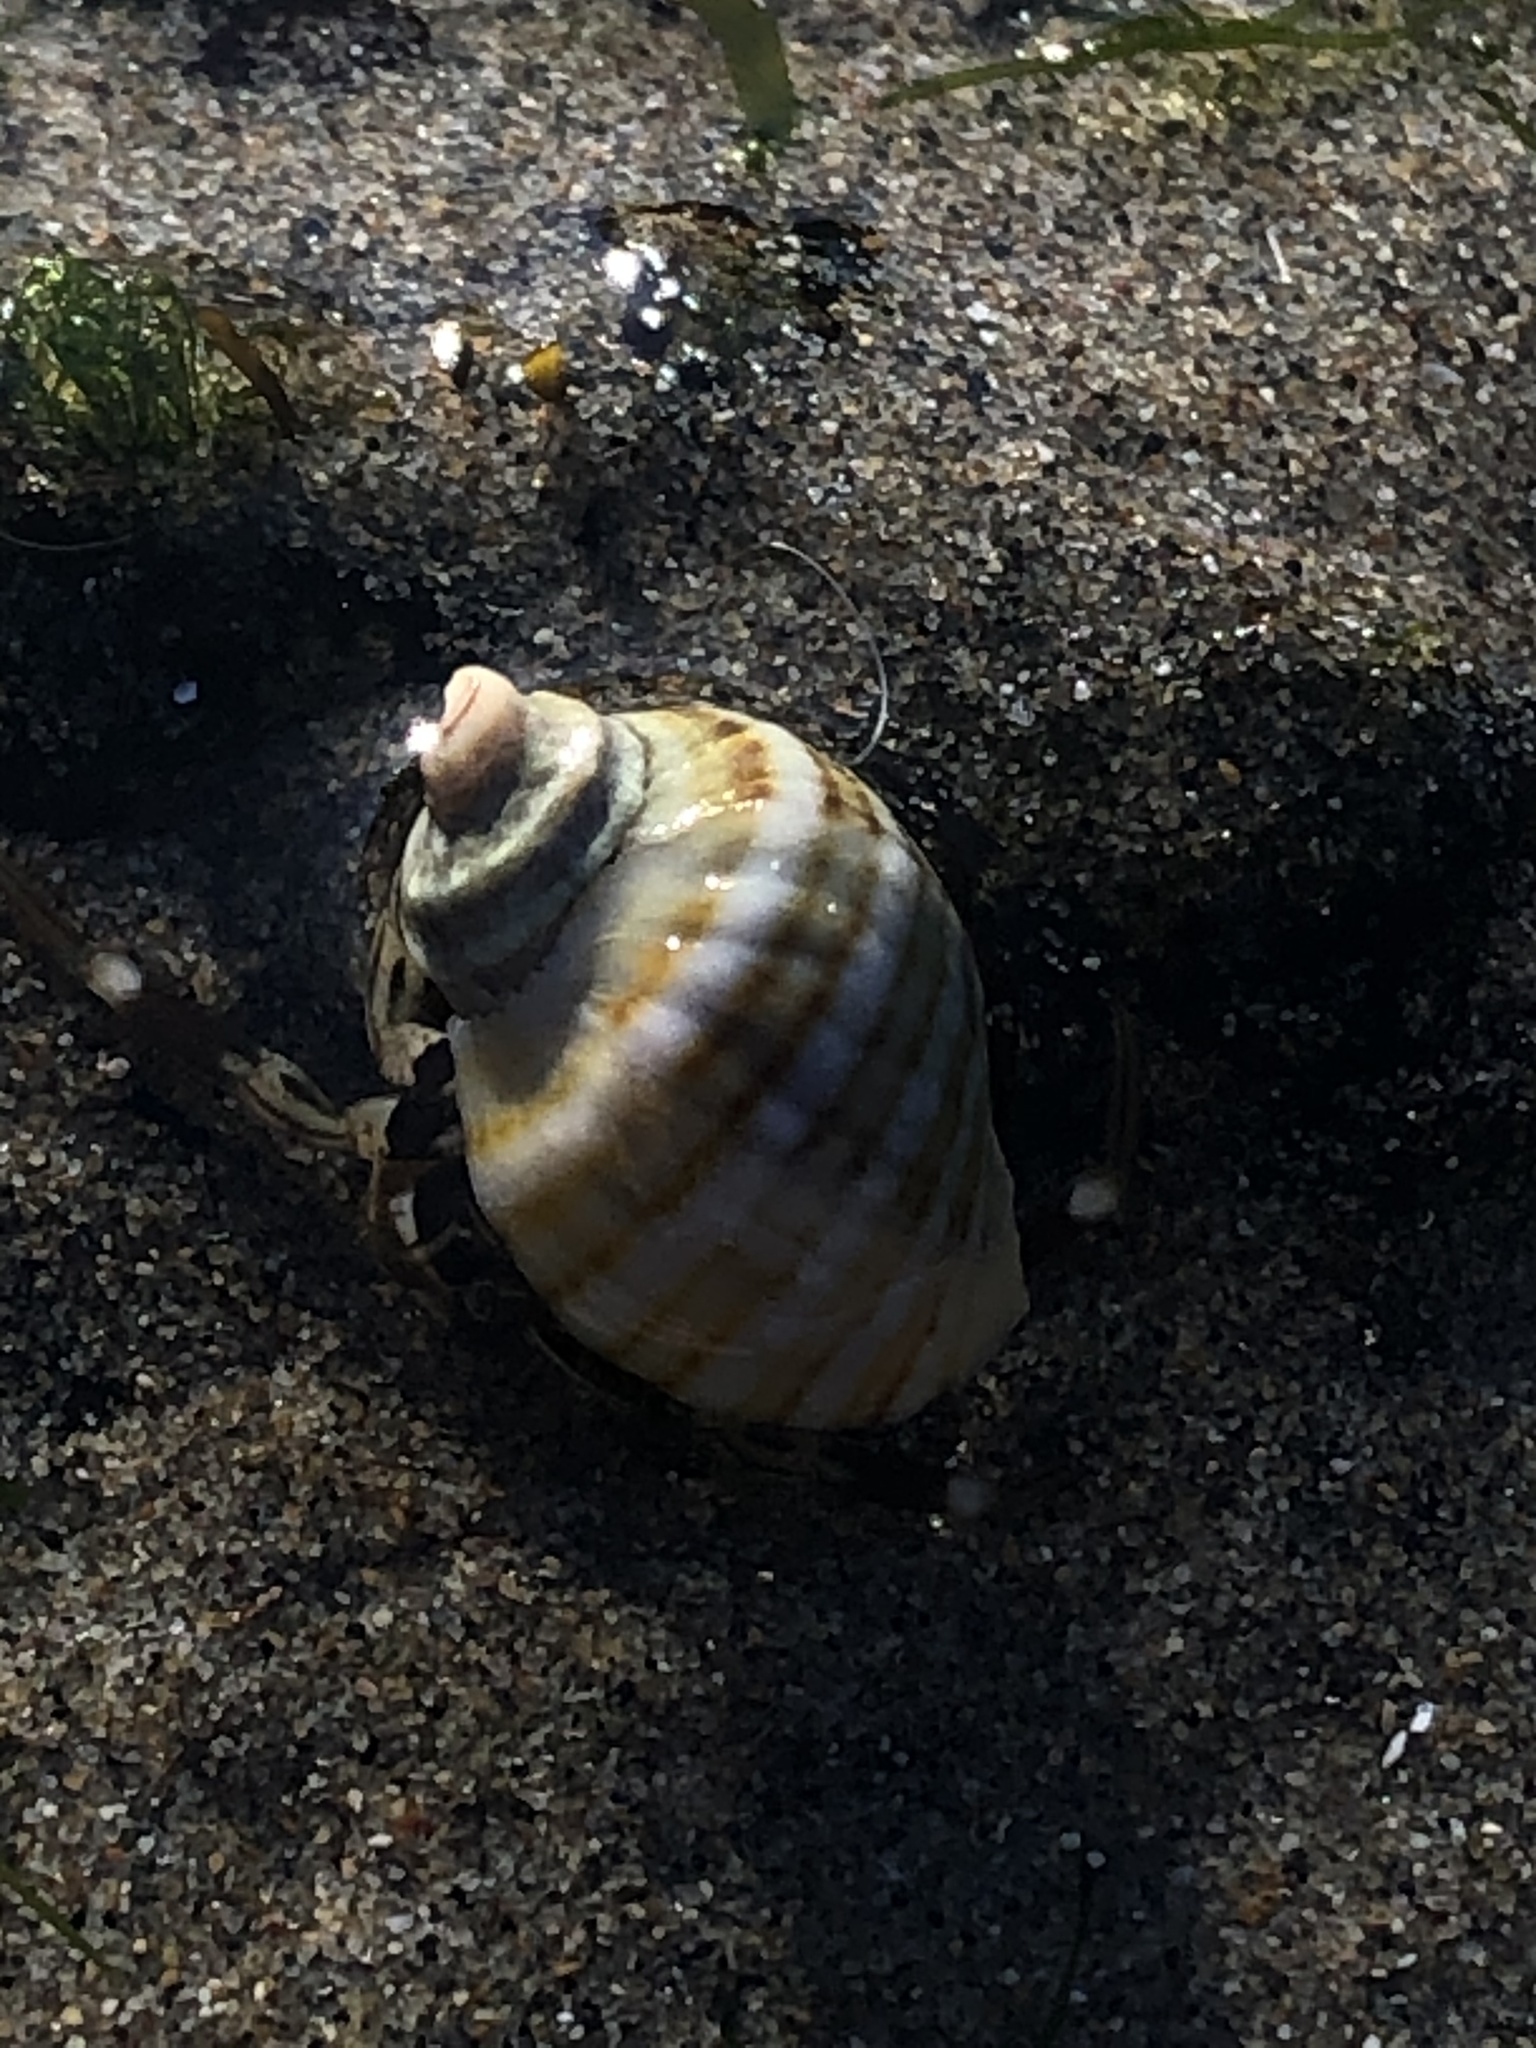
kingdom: Animalia
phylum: Mollusca
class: Gastropoda
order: Neogastropoda
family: Muricidae
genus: Nucella
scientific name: Nucella ostrina
